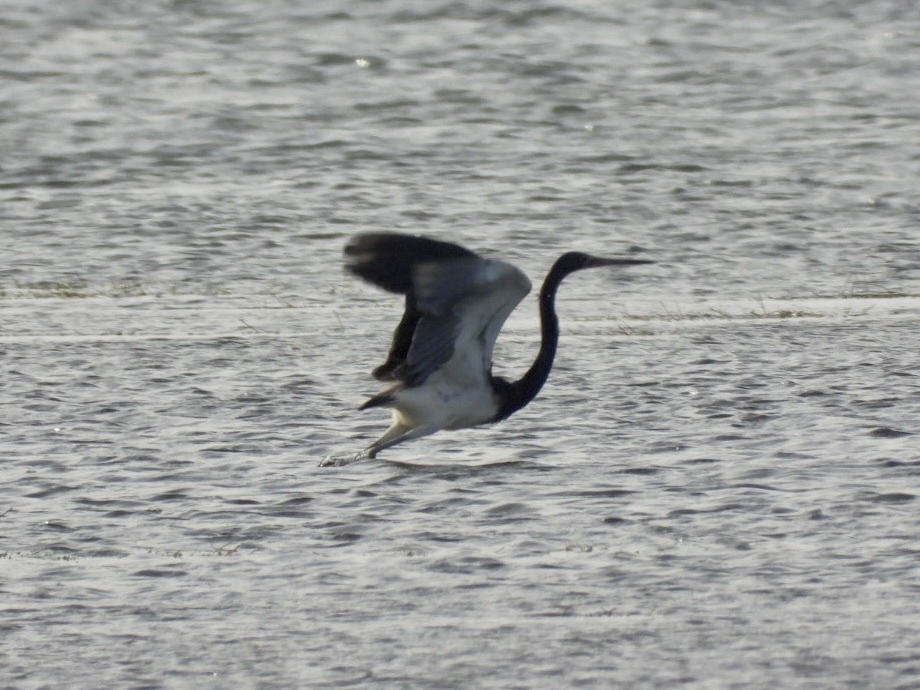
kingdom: Animalia
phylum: Chordata
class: Aves
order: Pelecaniformes
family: Ardeidae
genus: Egretta
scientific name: Egretta tricolor
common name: Tricolored heron
